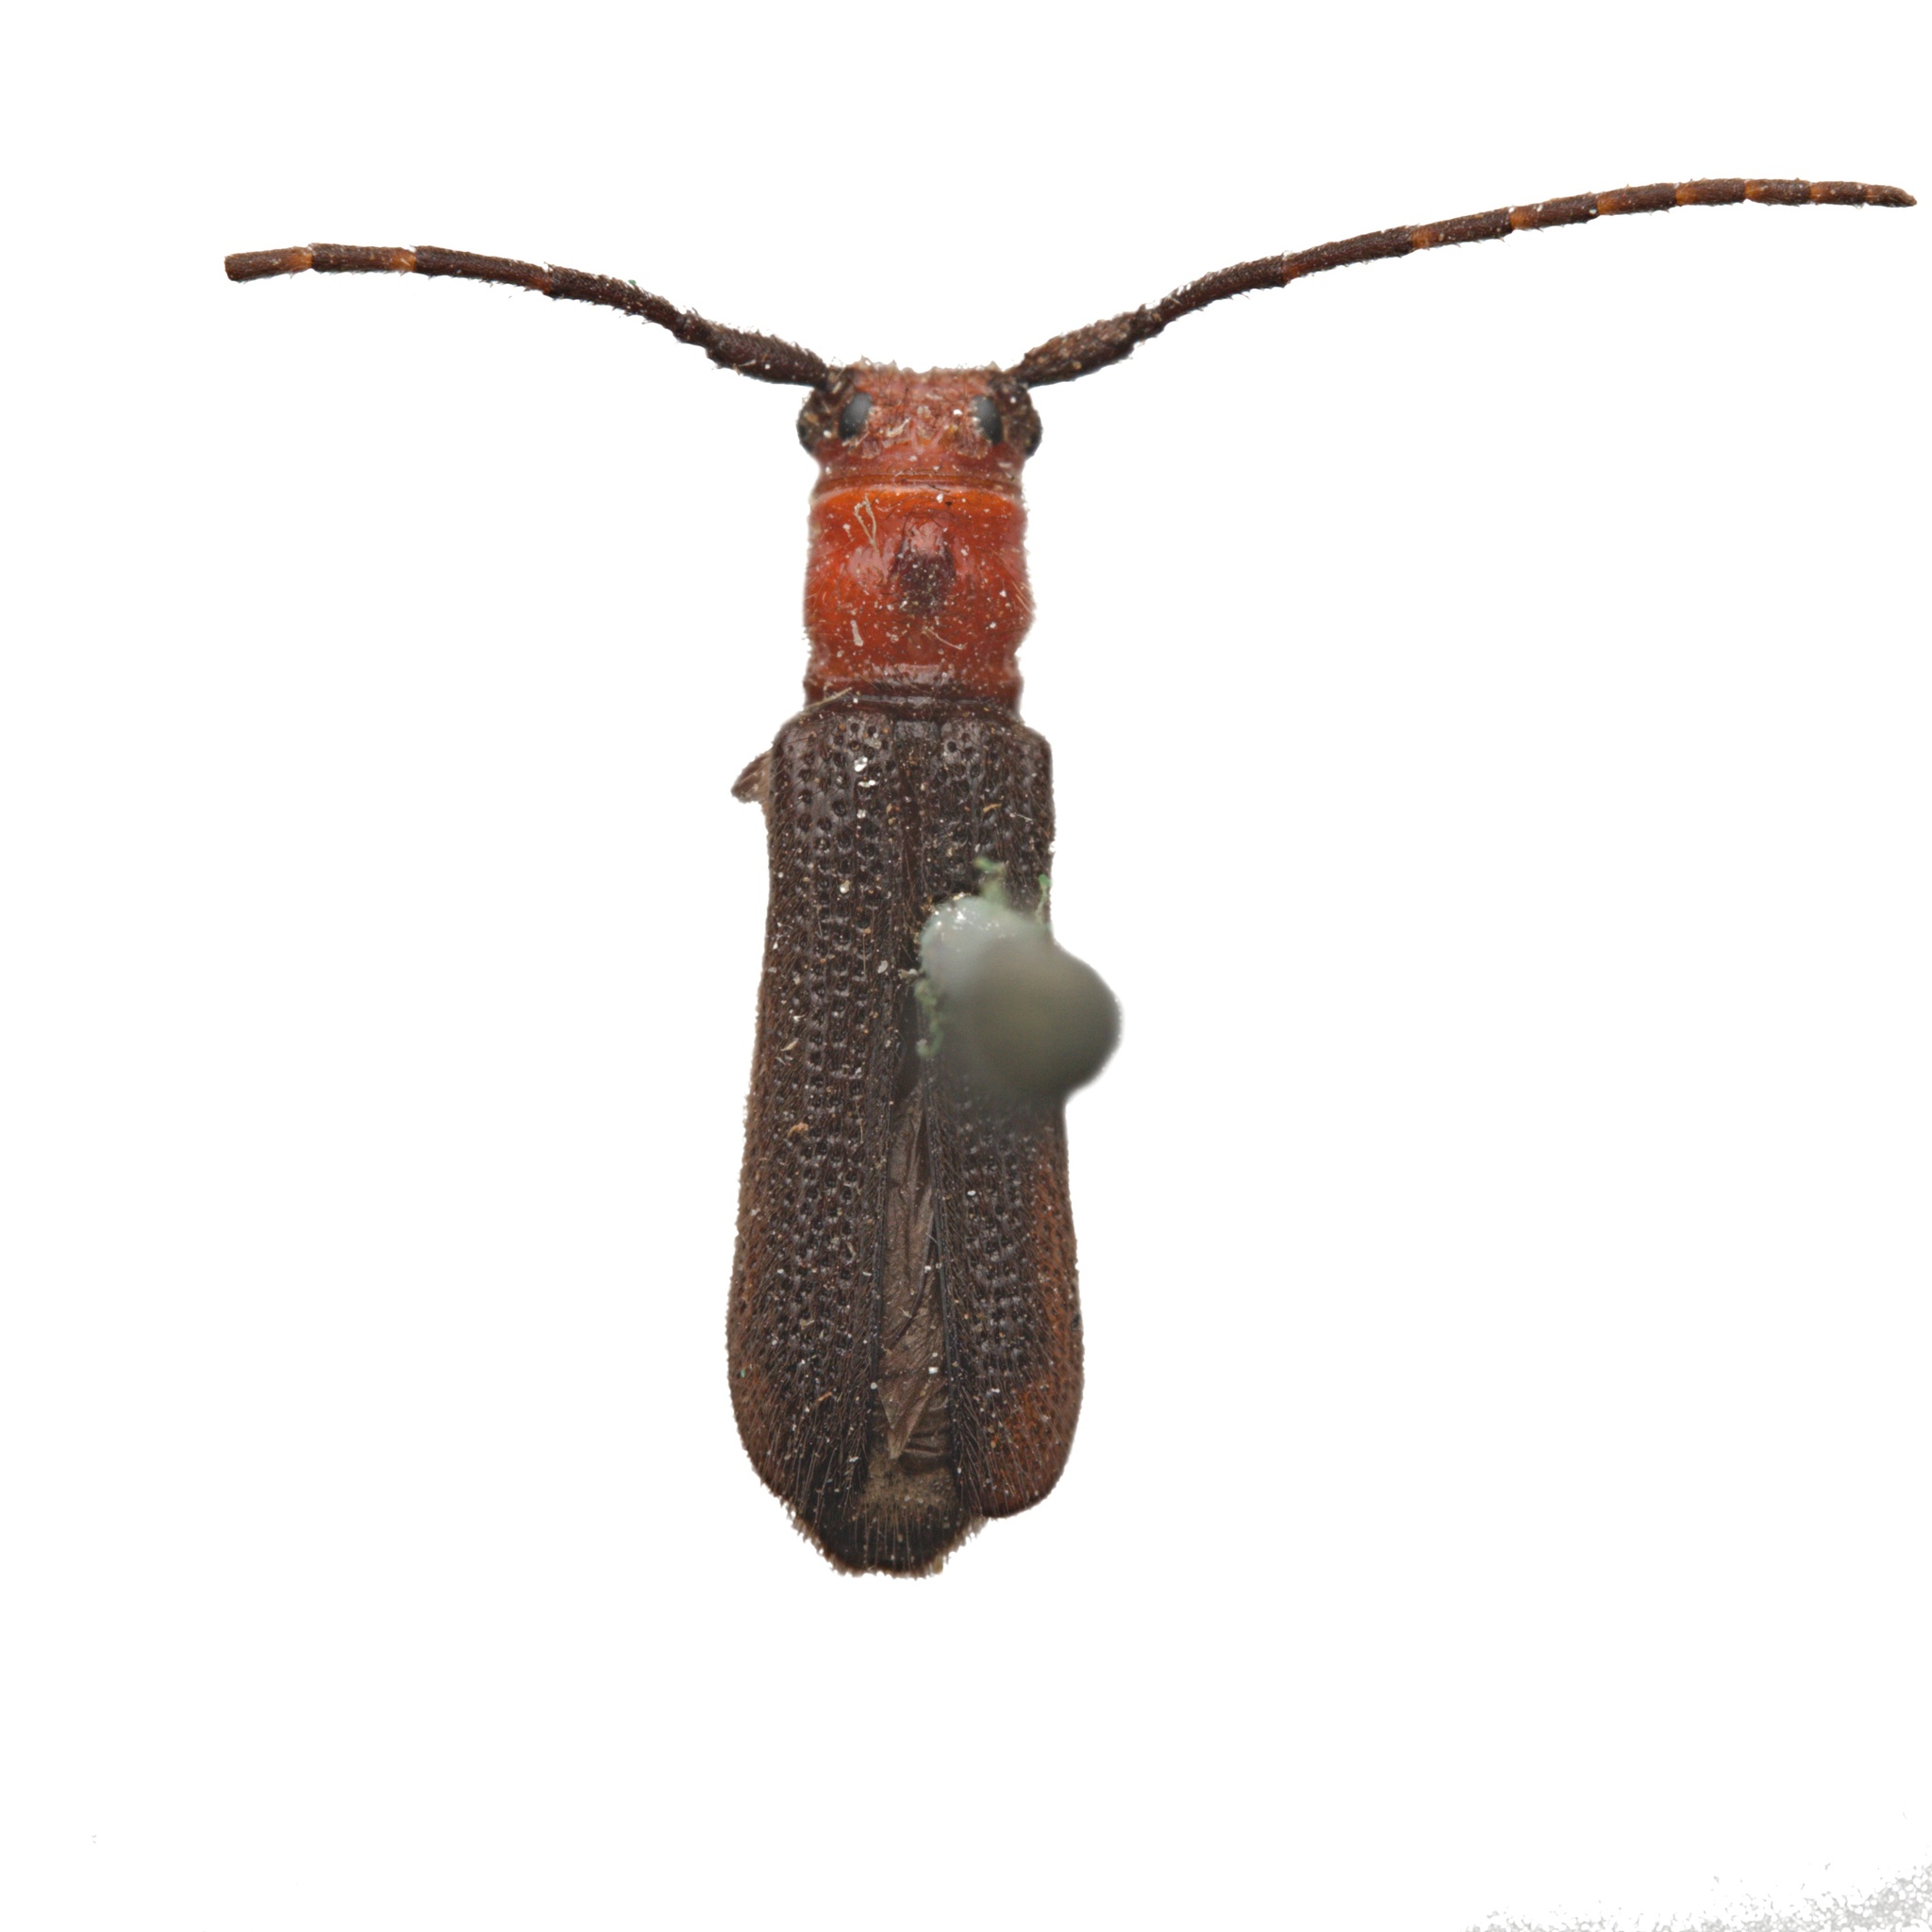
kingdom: Animalia
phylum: Arthropoda
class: Insecta
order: Coleoptera
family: Cerambycidae
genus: Phaea
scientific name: Phaea monostigma
